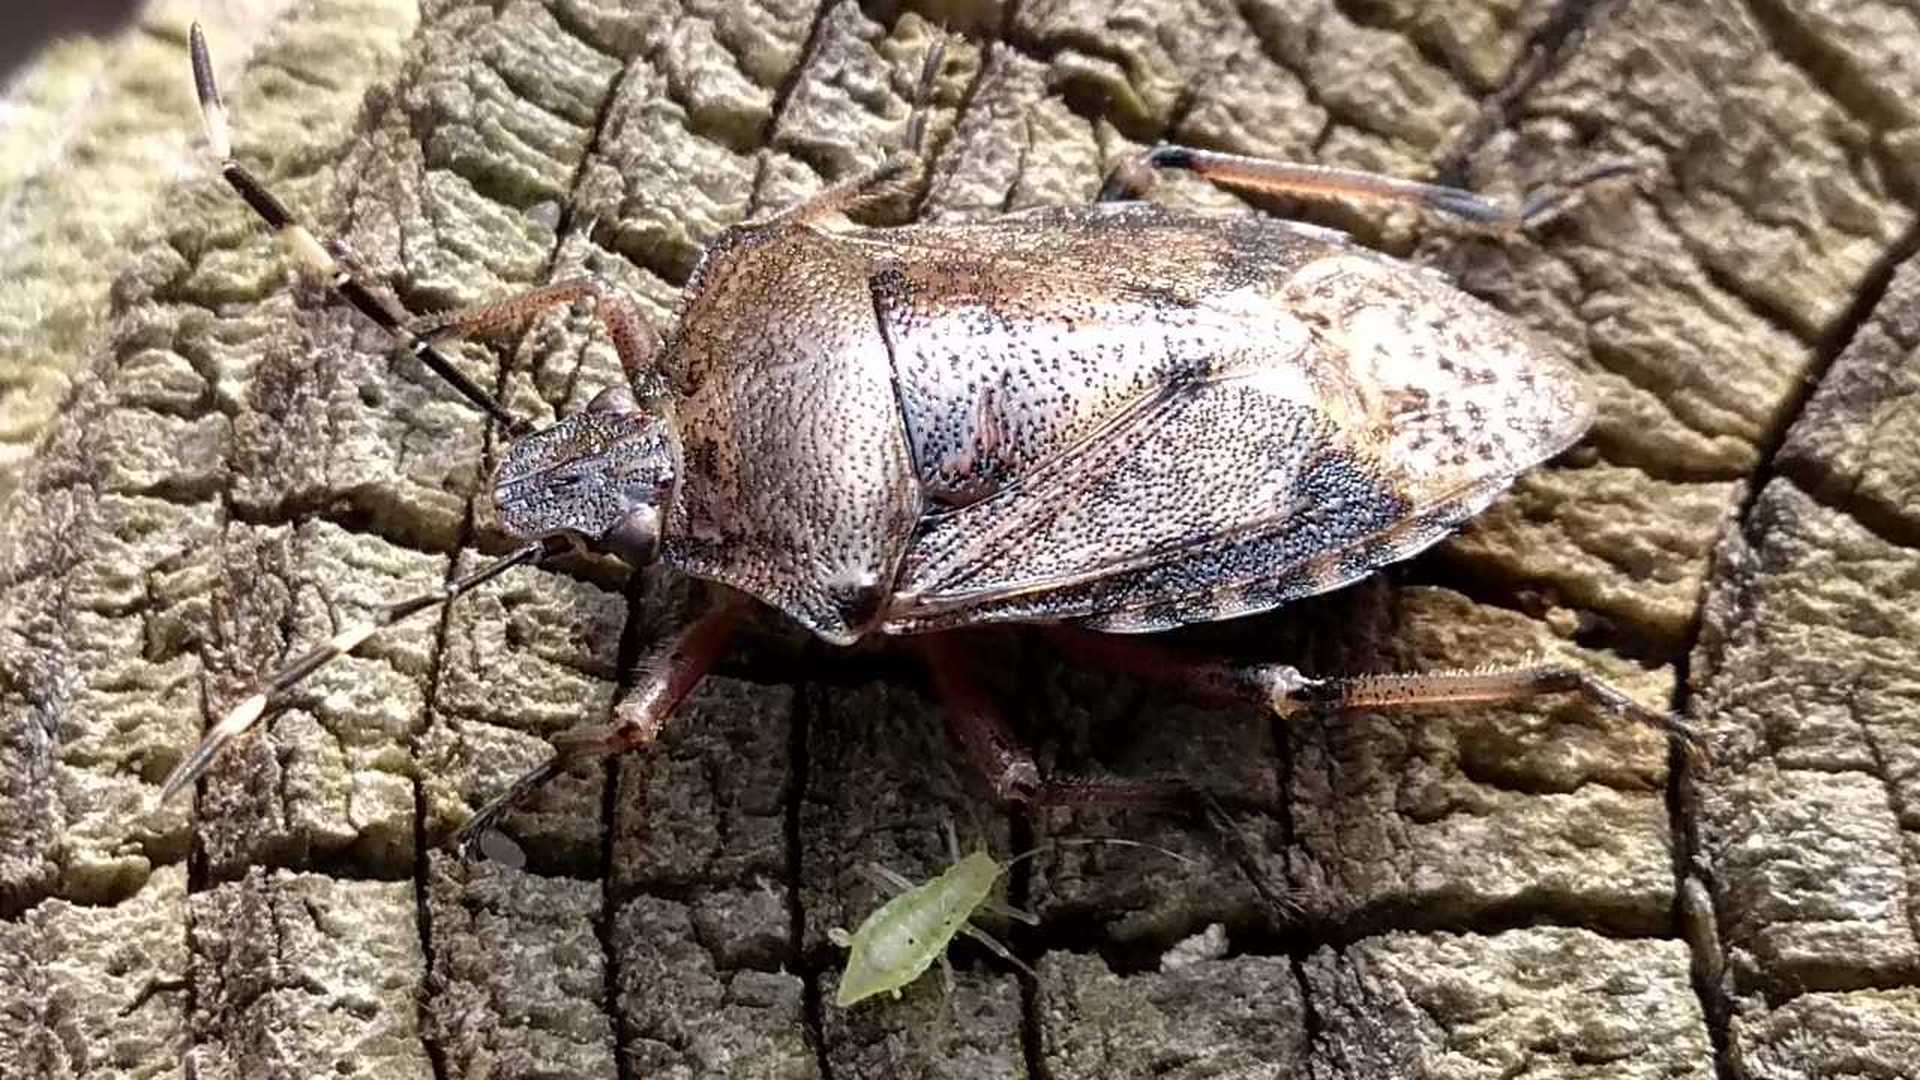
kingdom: Animalia
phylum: Arthropoda
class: Insecta
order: Hemiptera
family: Pentatomidae
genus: Rhaphigaster
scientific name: Rhaphigaster nebulosa
